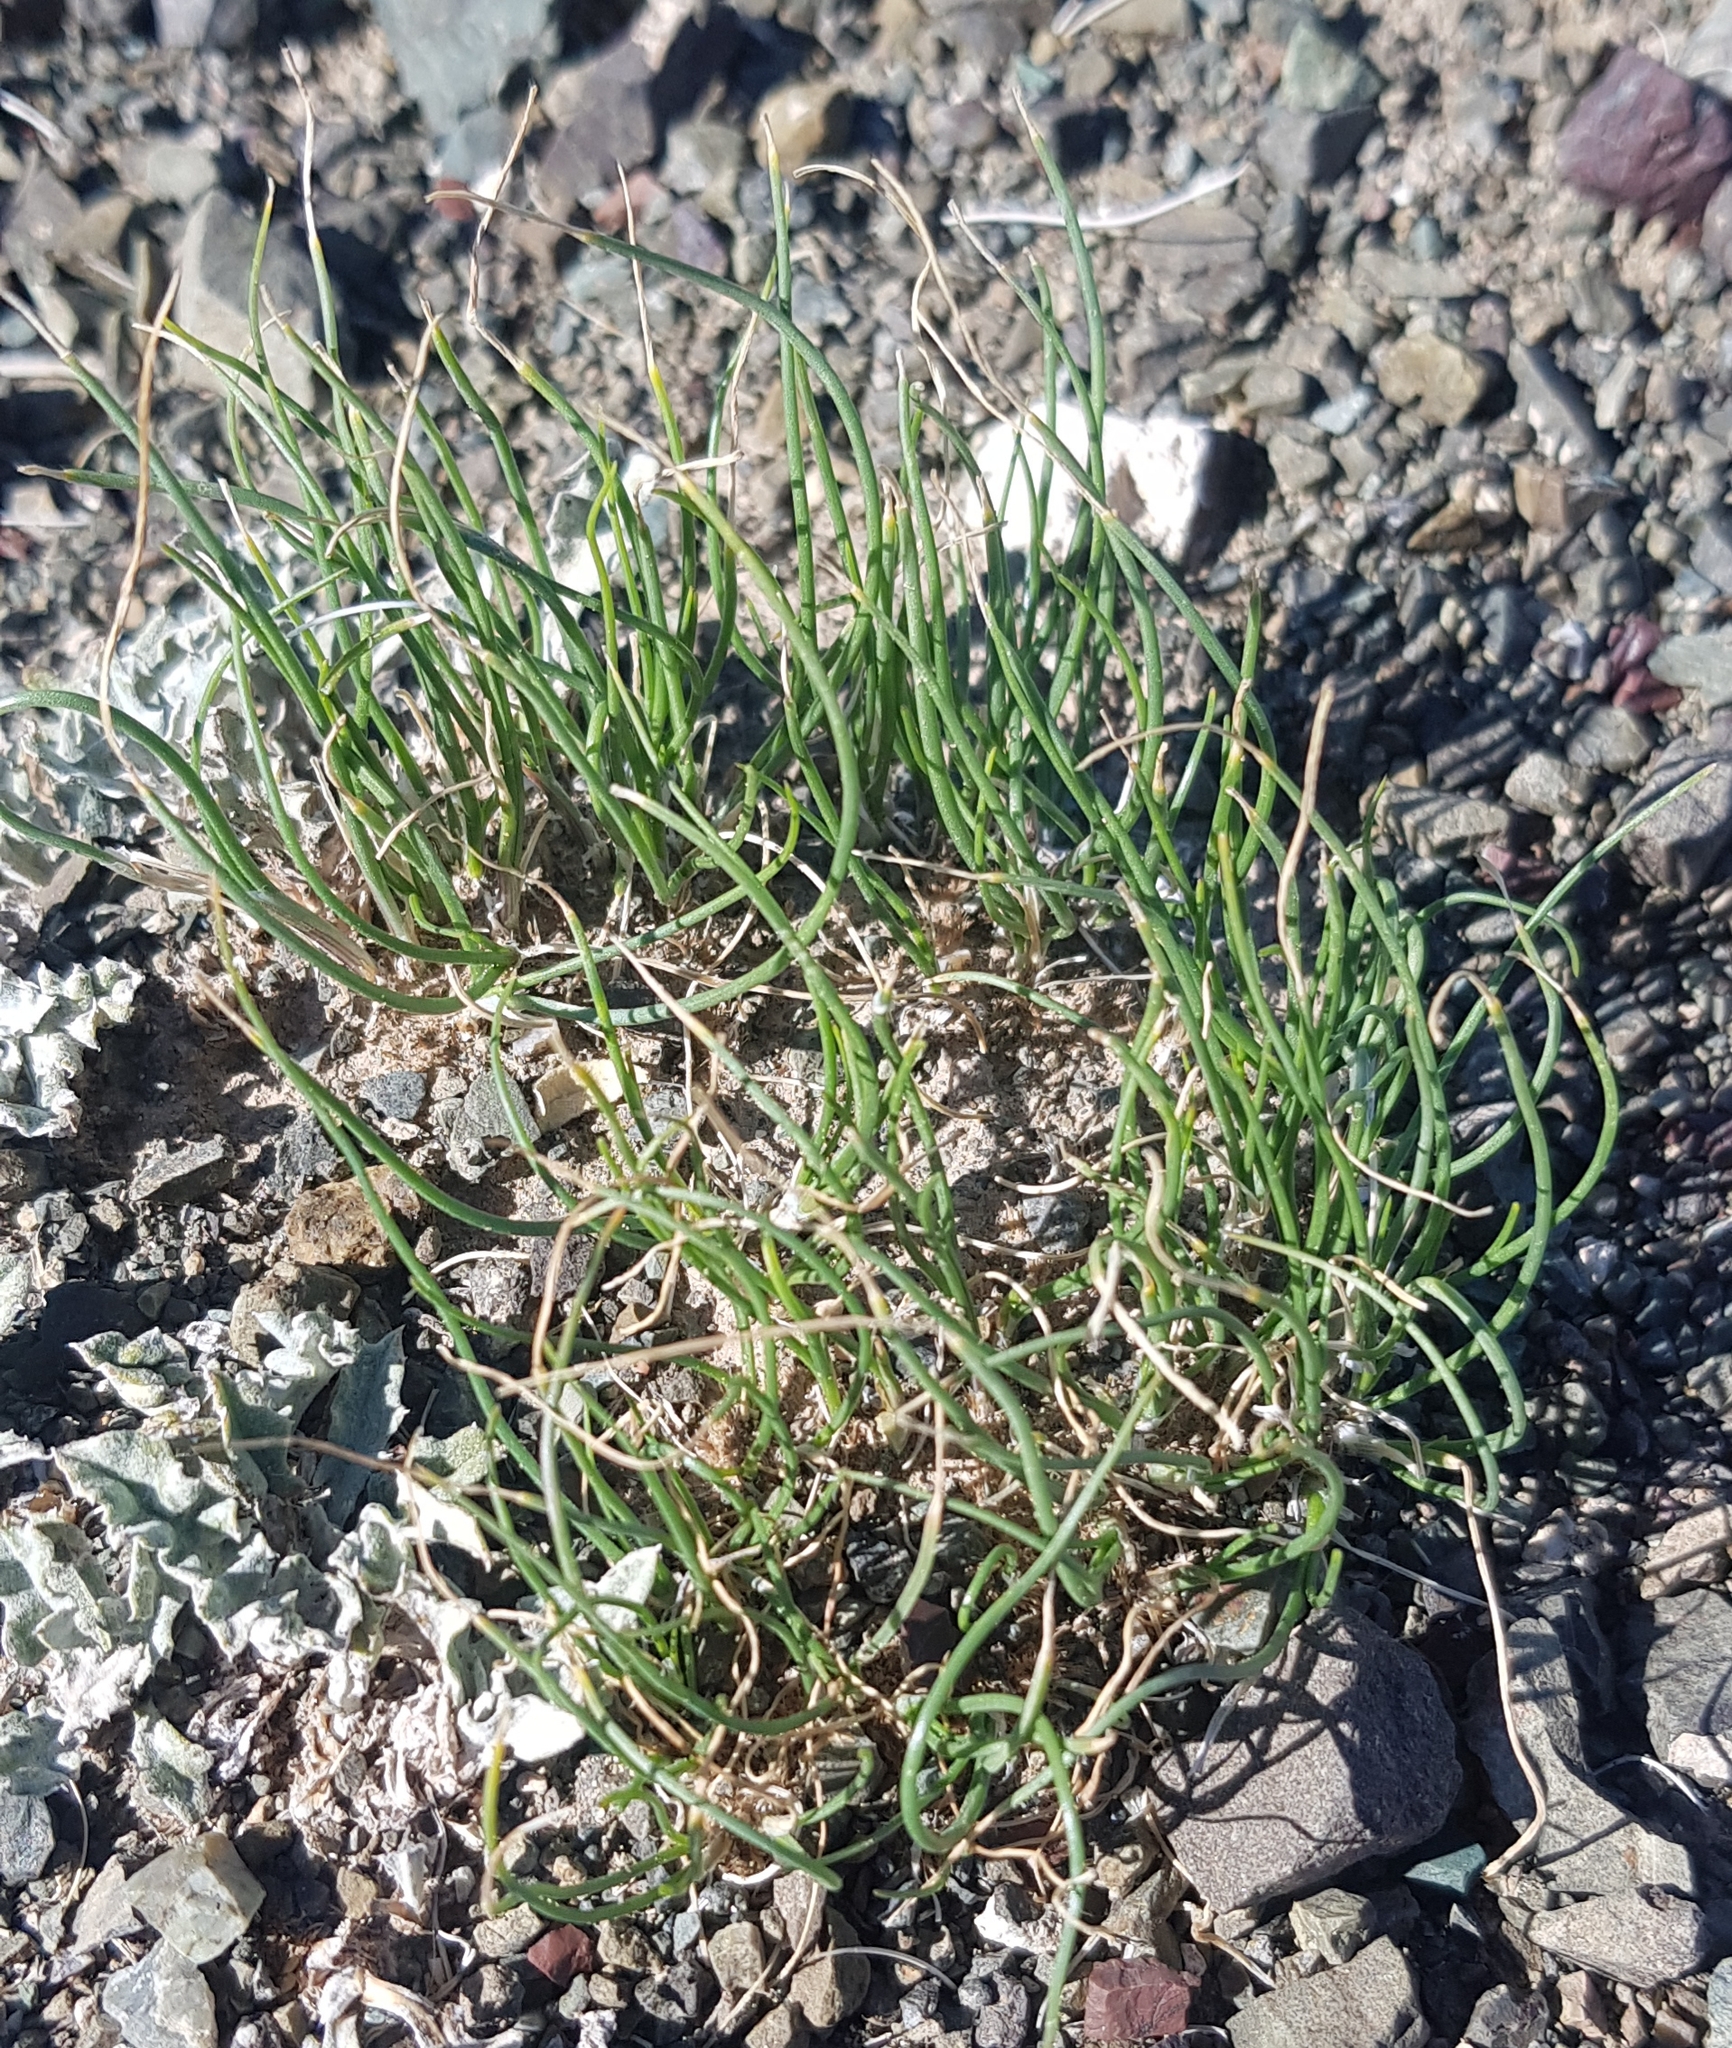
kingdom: Plantae
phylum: Tracheophyta
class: Liliopsida
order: Asparagales
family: Amaryllidaceae
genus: Allium
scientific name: Allium polyrhizum
